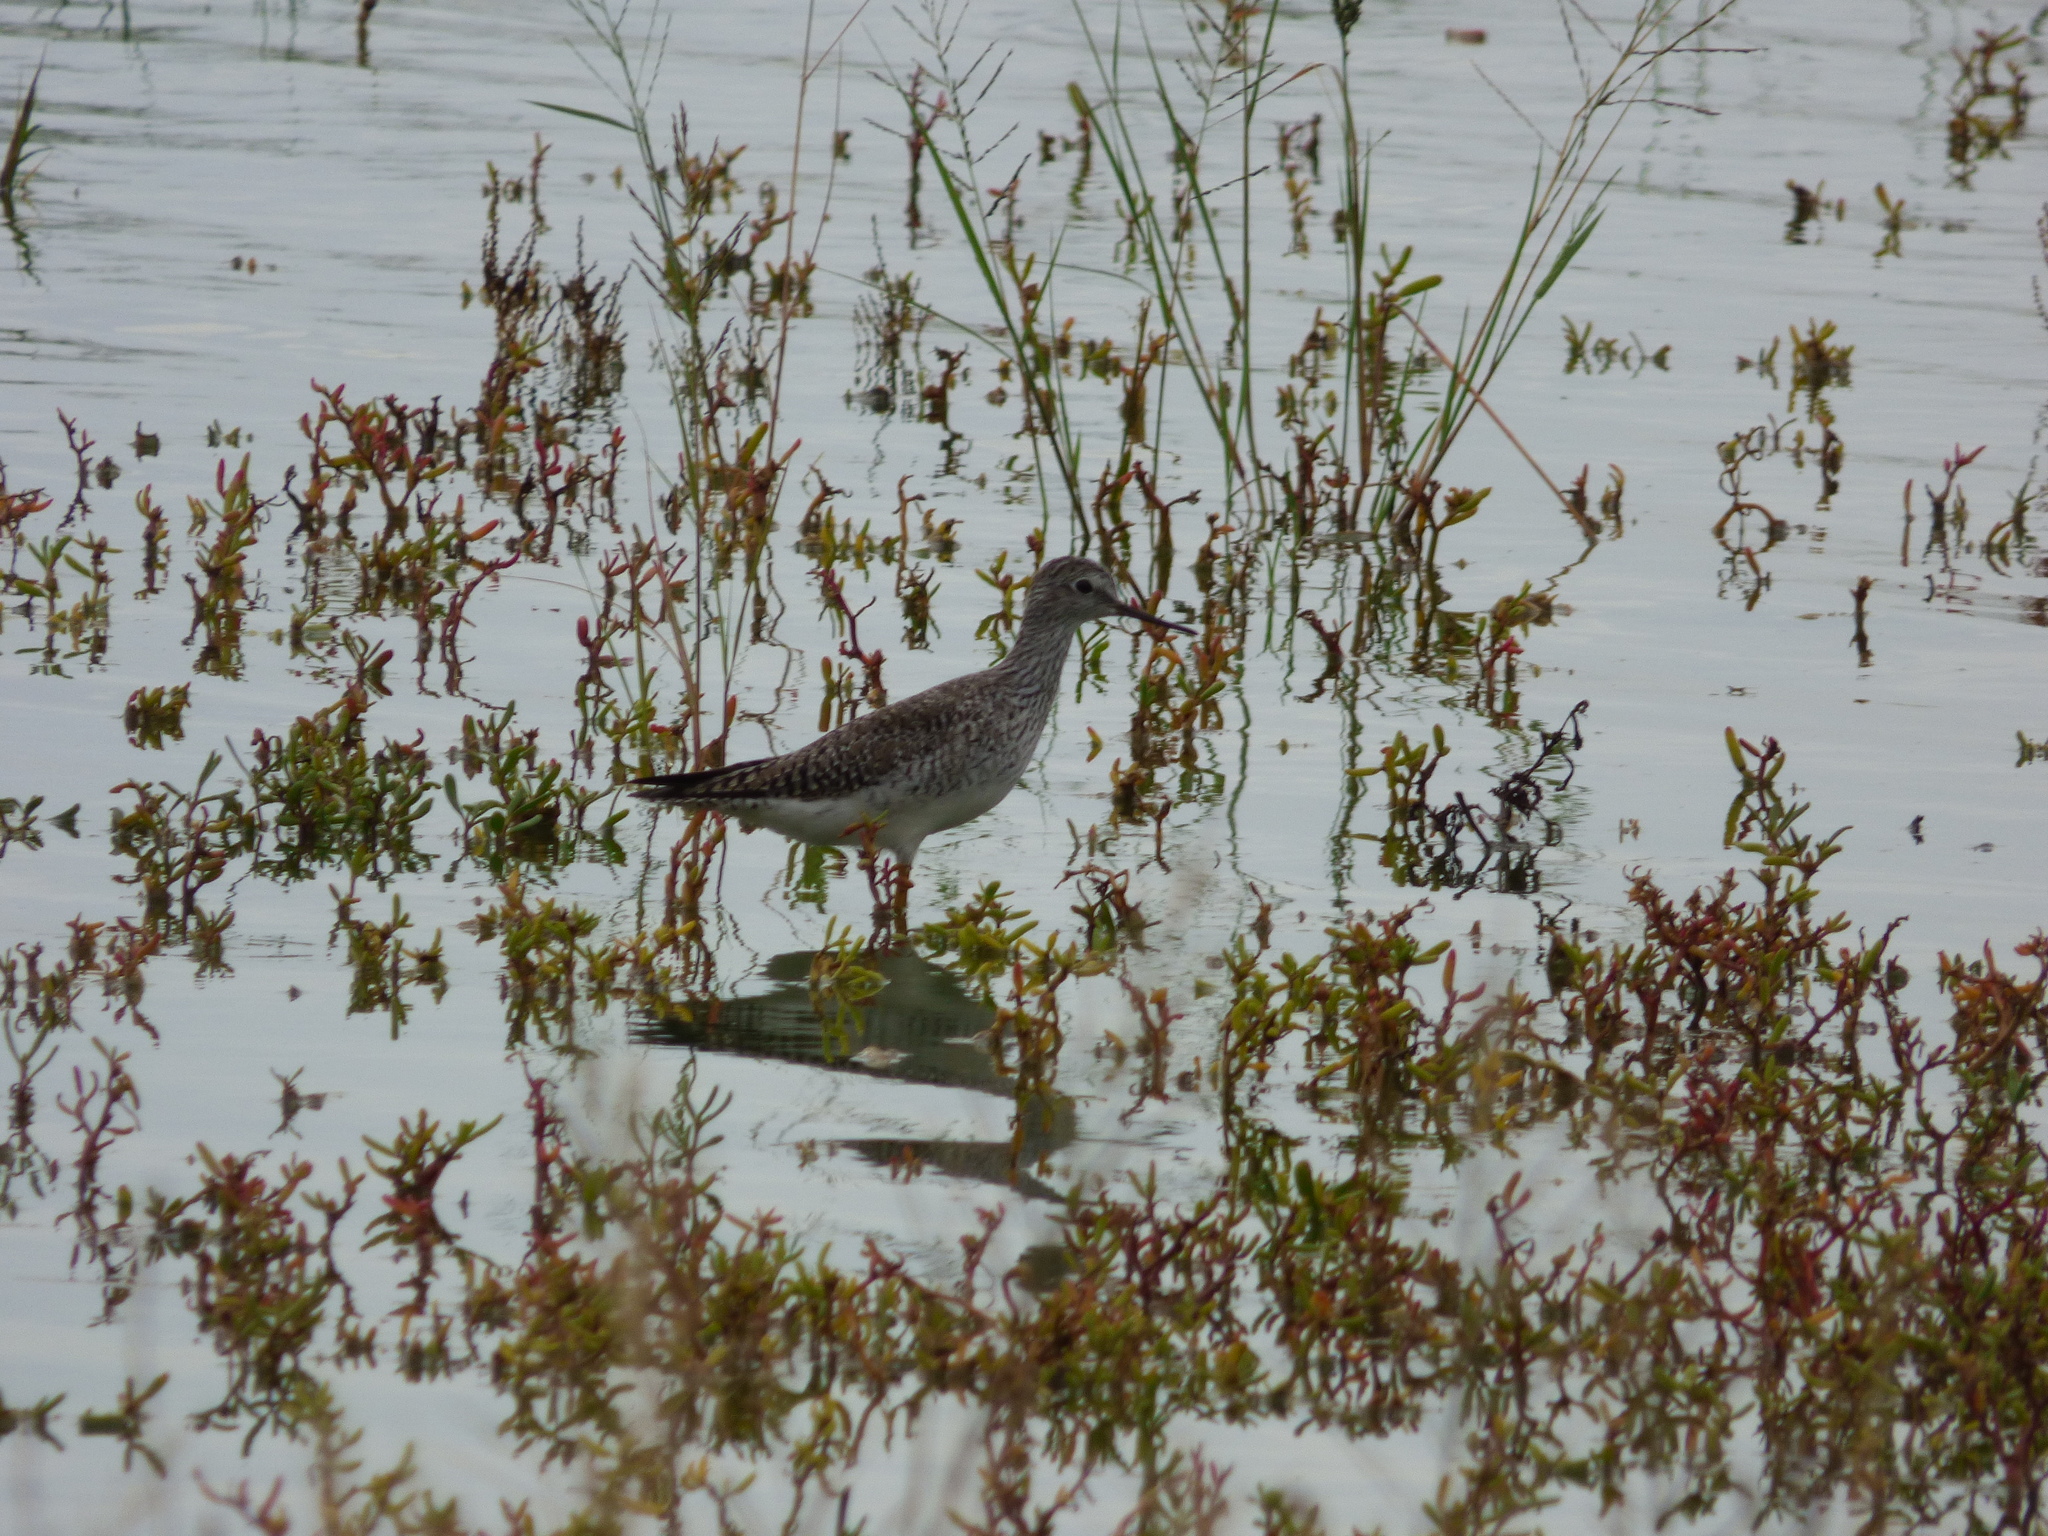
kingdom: Animalia
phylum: Chordata
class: Aves
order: Charadriiformes
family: Scolopacidae
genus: Tringa
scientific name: Tringa flavipes
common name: Lesser yellowlegs
